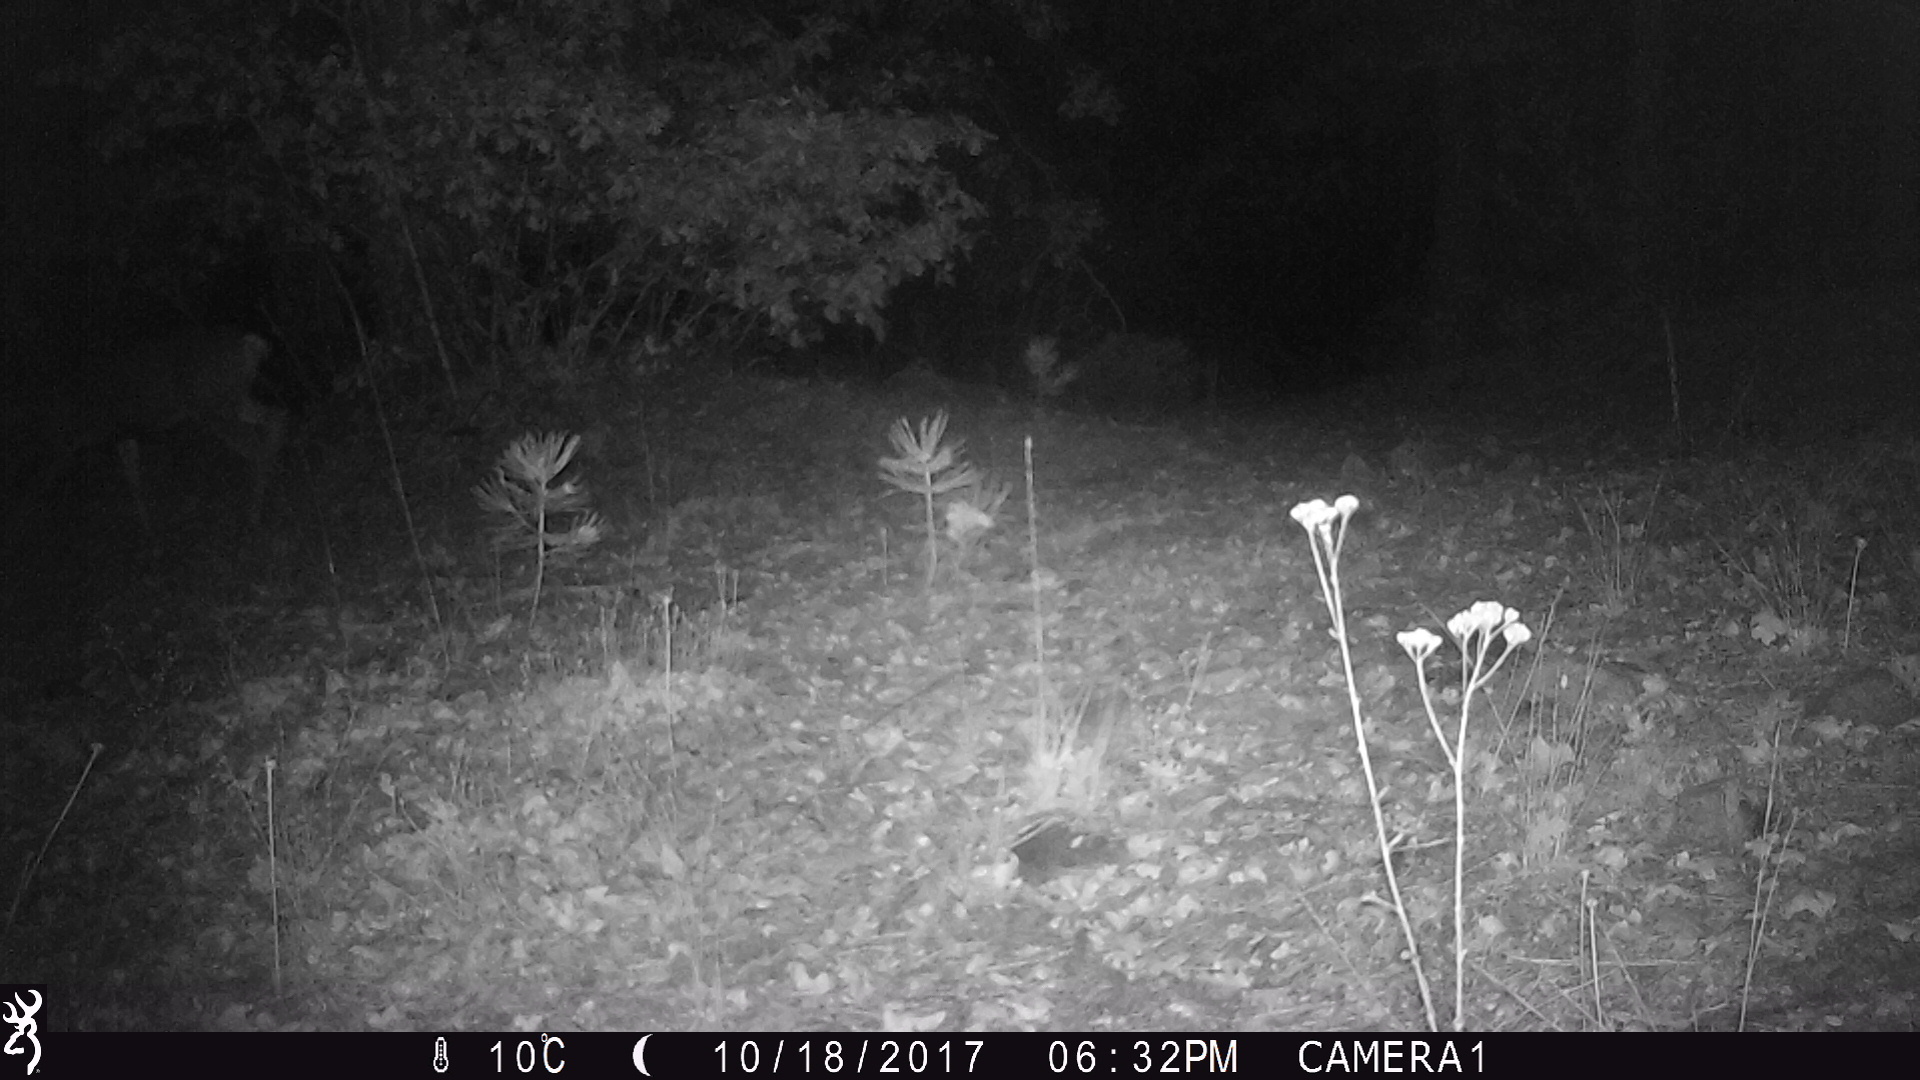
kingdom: Animalia
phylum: Chordata
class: Mammalia
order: Artiodactyla
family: Cervidae
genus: Odocoileus
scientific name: Odocoileus hemionus
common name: Mule deer
